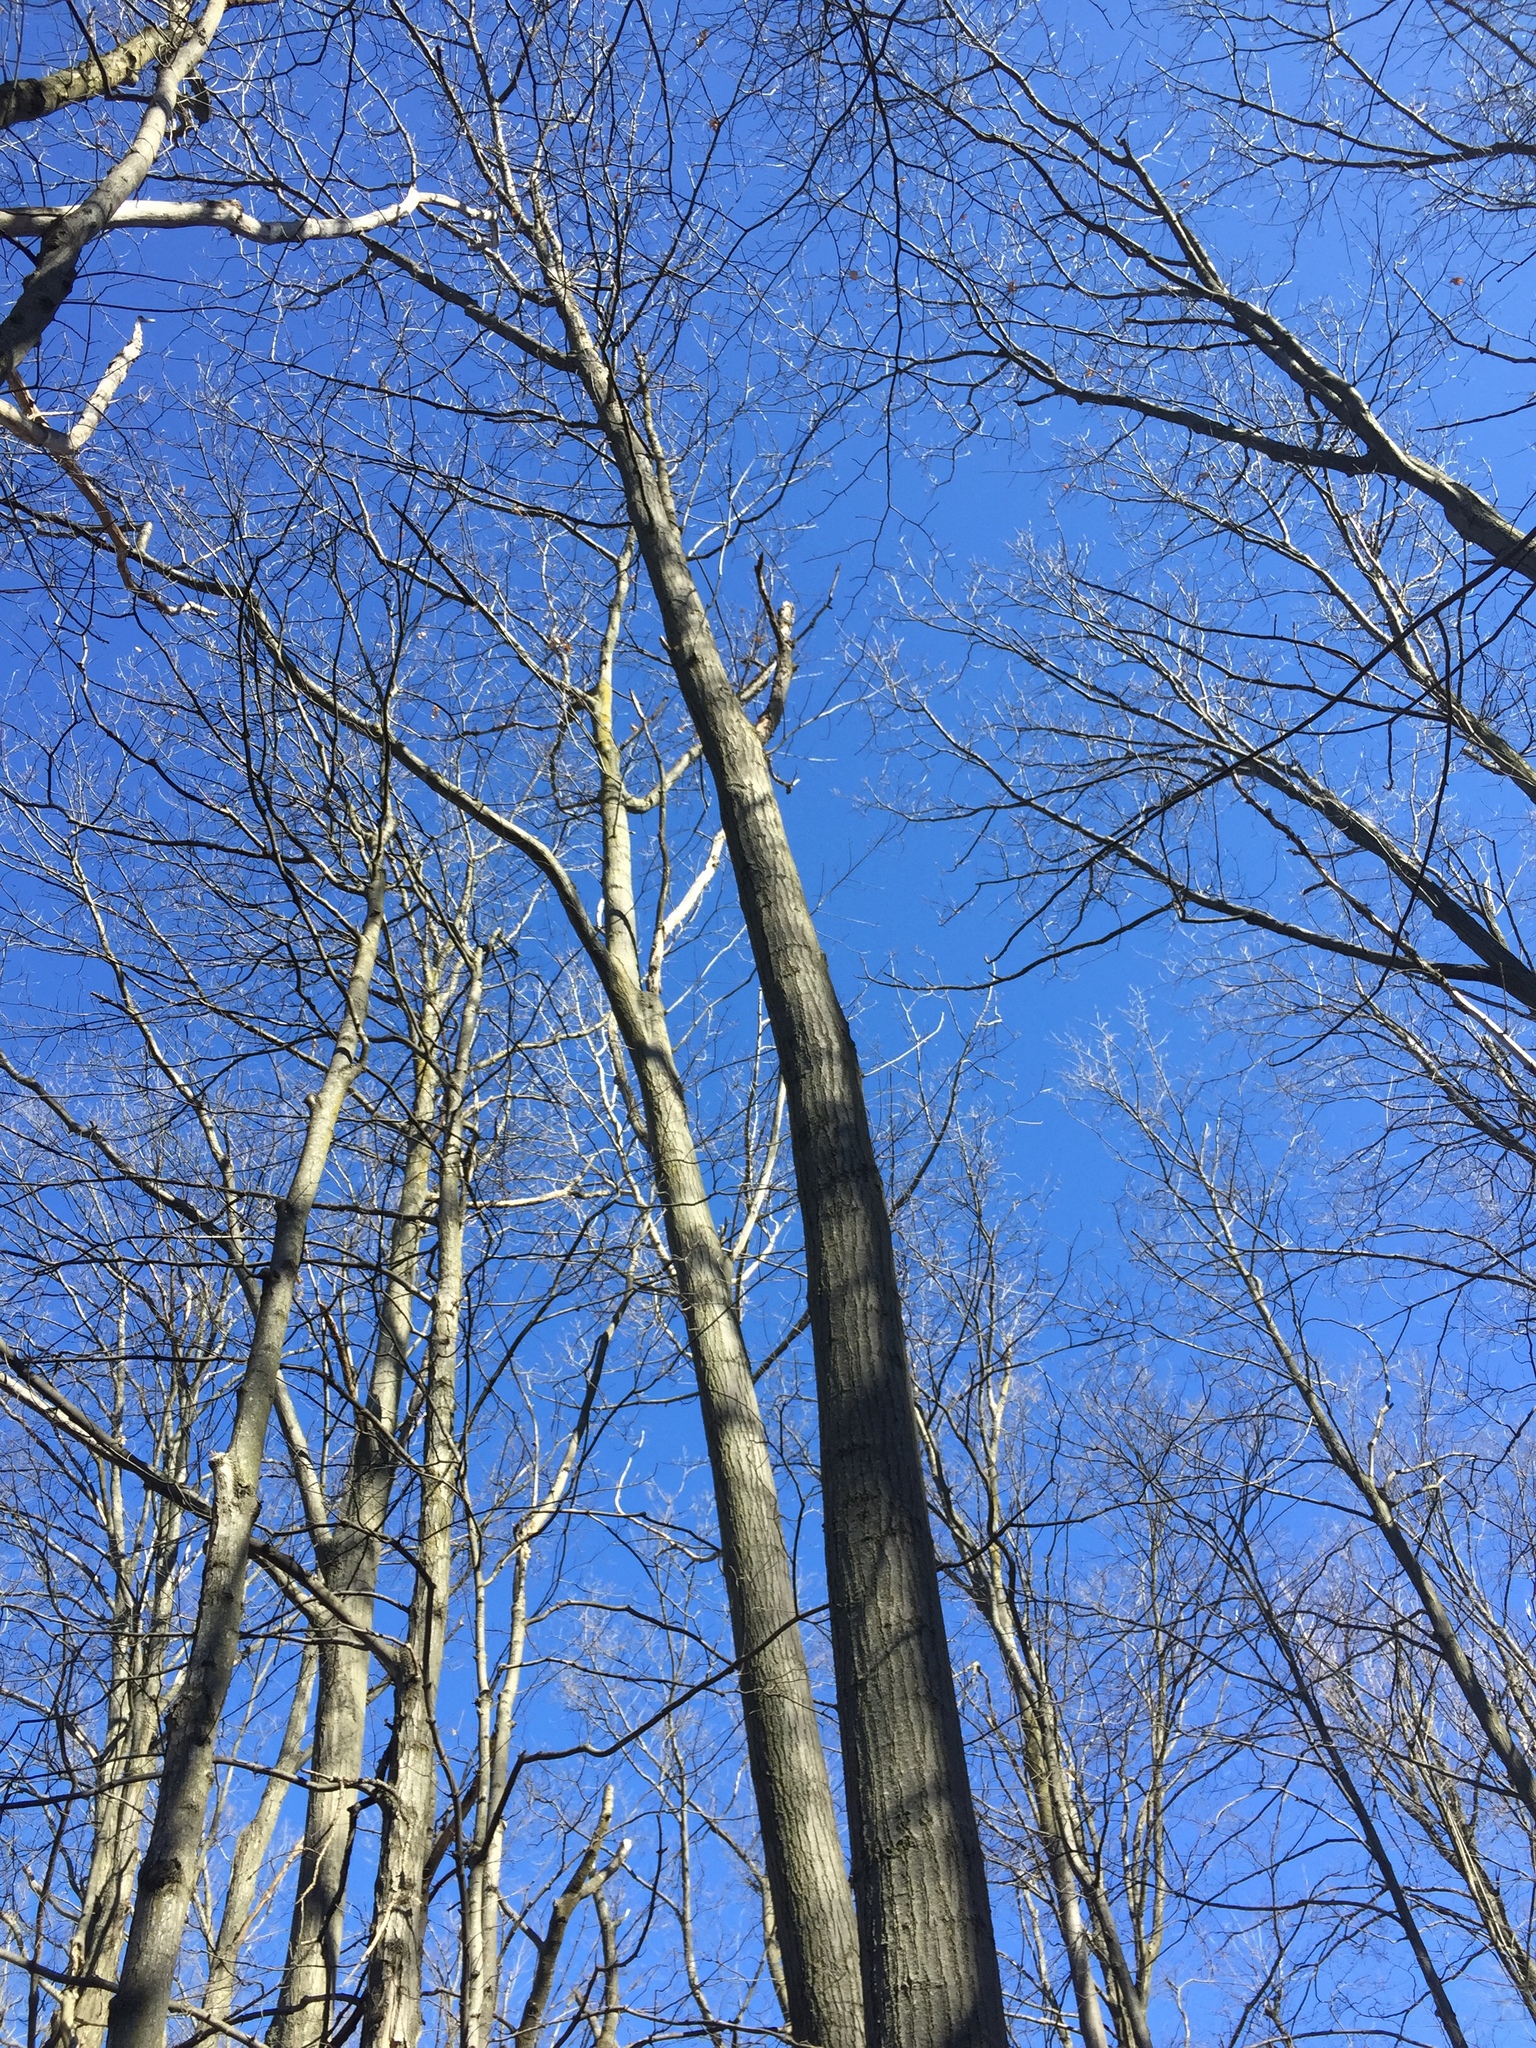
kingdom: Plantae
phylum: Tracheophyta
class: Magnoliopsida
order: Fagales
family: Fagaceae
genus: Quercus
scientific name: Quercus rubra
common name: Red oak
